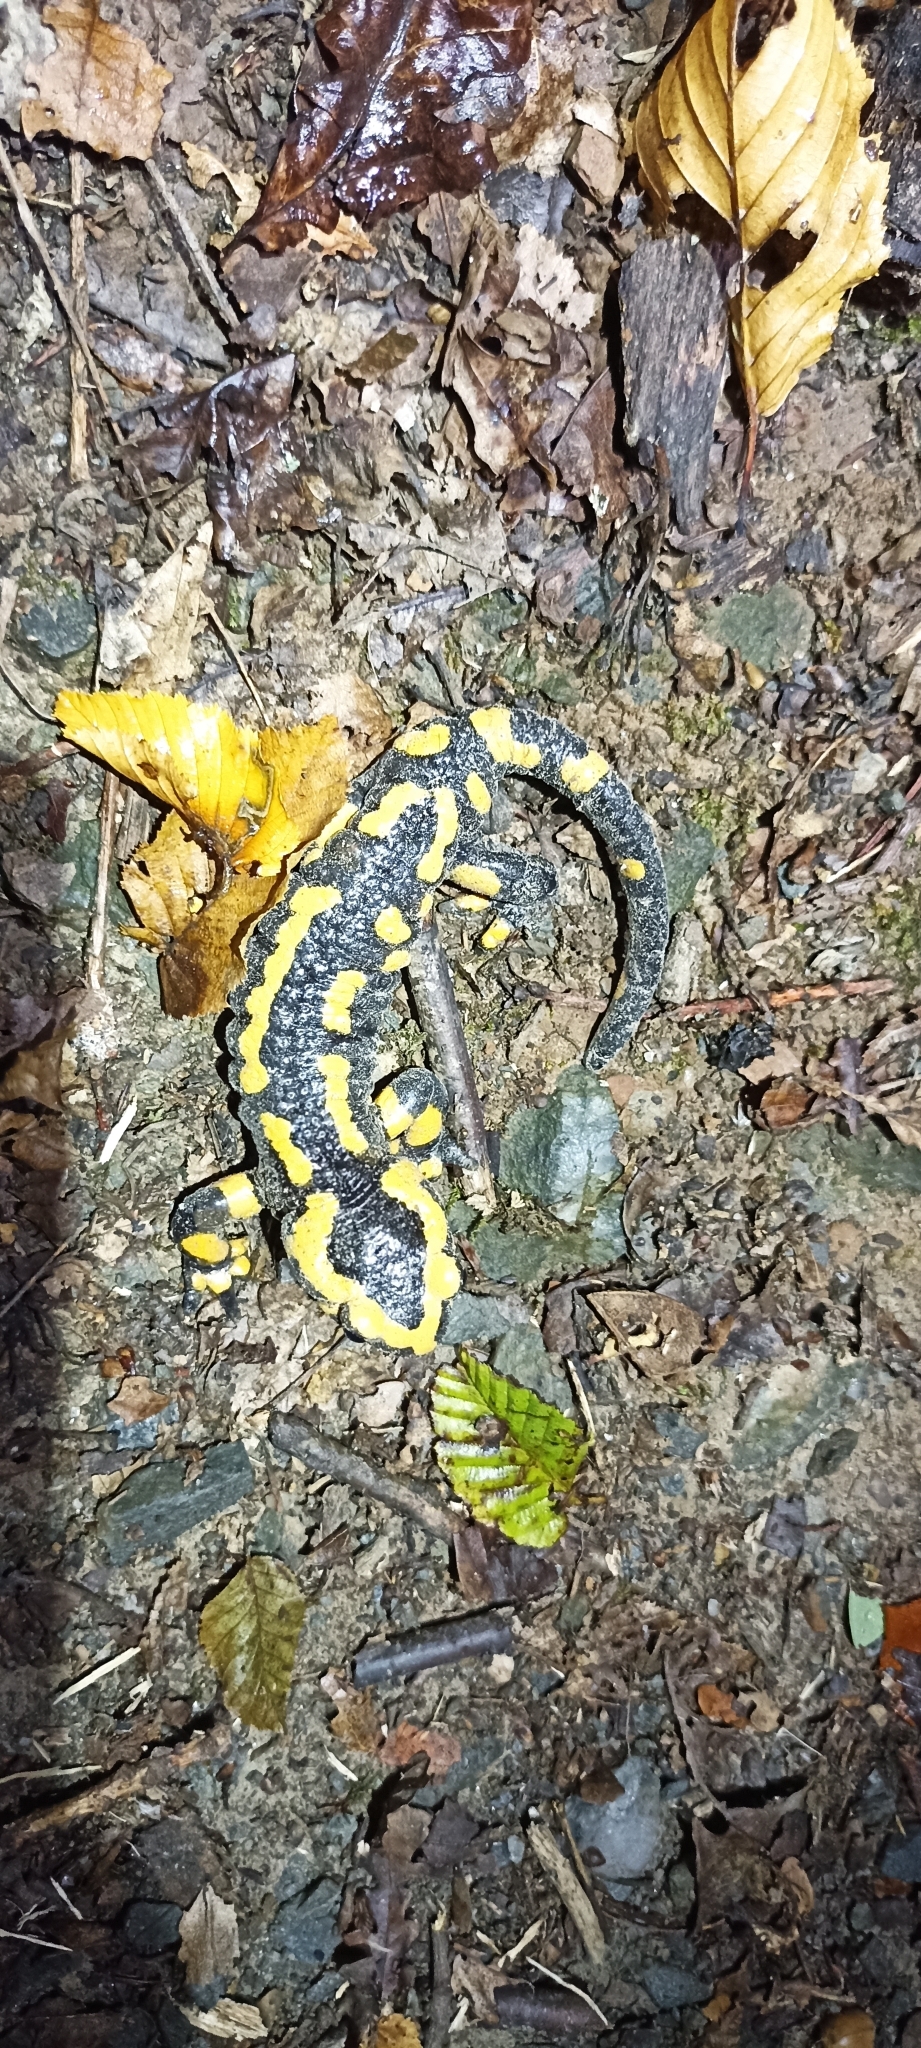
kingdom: Animalia
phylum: Chordata
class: Amphibia
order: Caudata
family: Salamandridae
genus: Salamandra
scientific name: Salamandra salamandra
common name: Fire salamander
